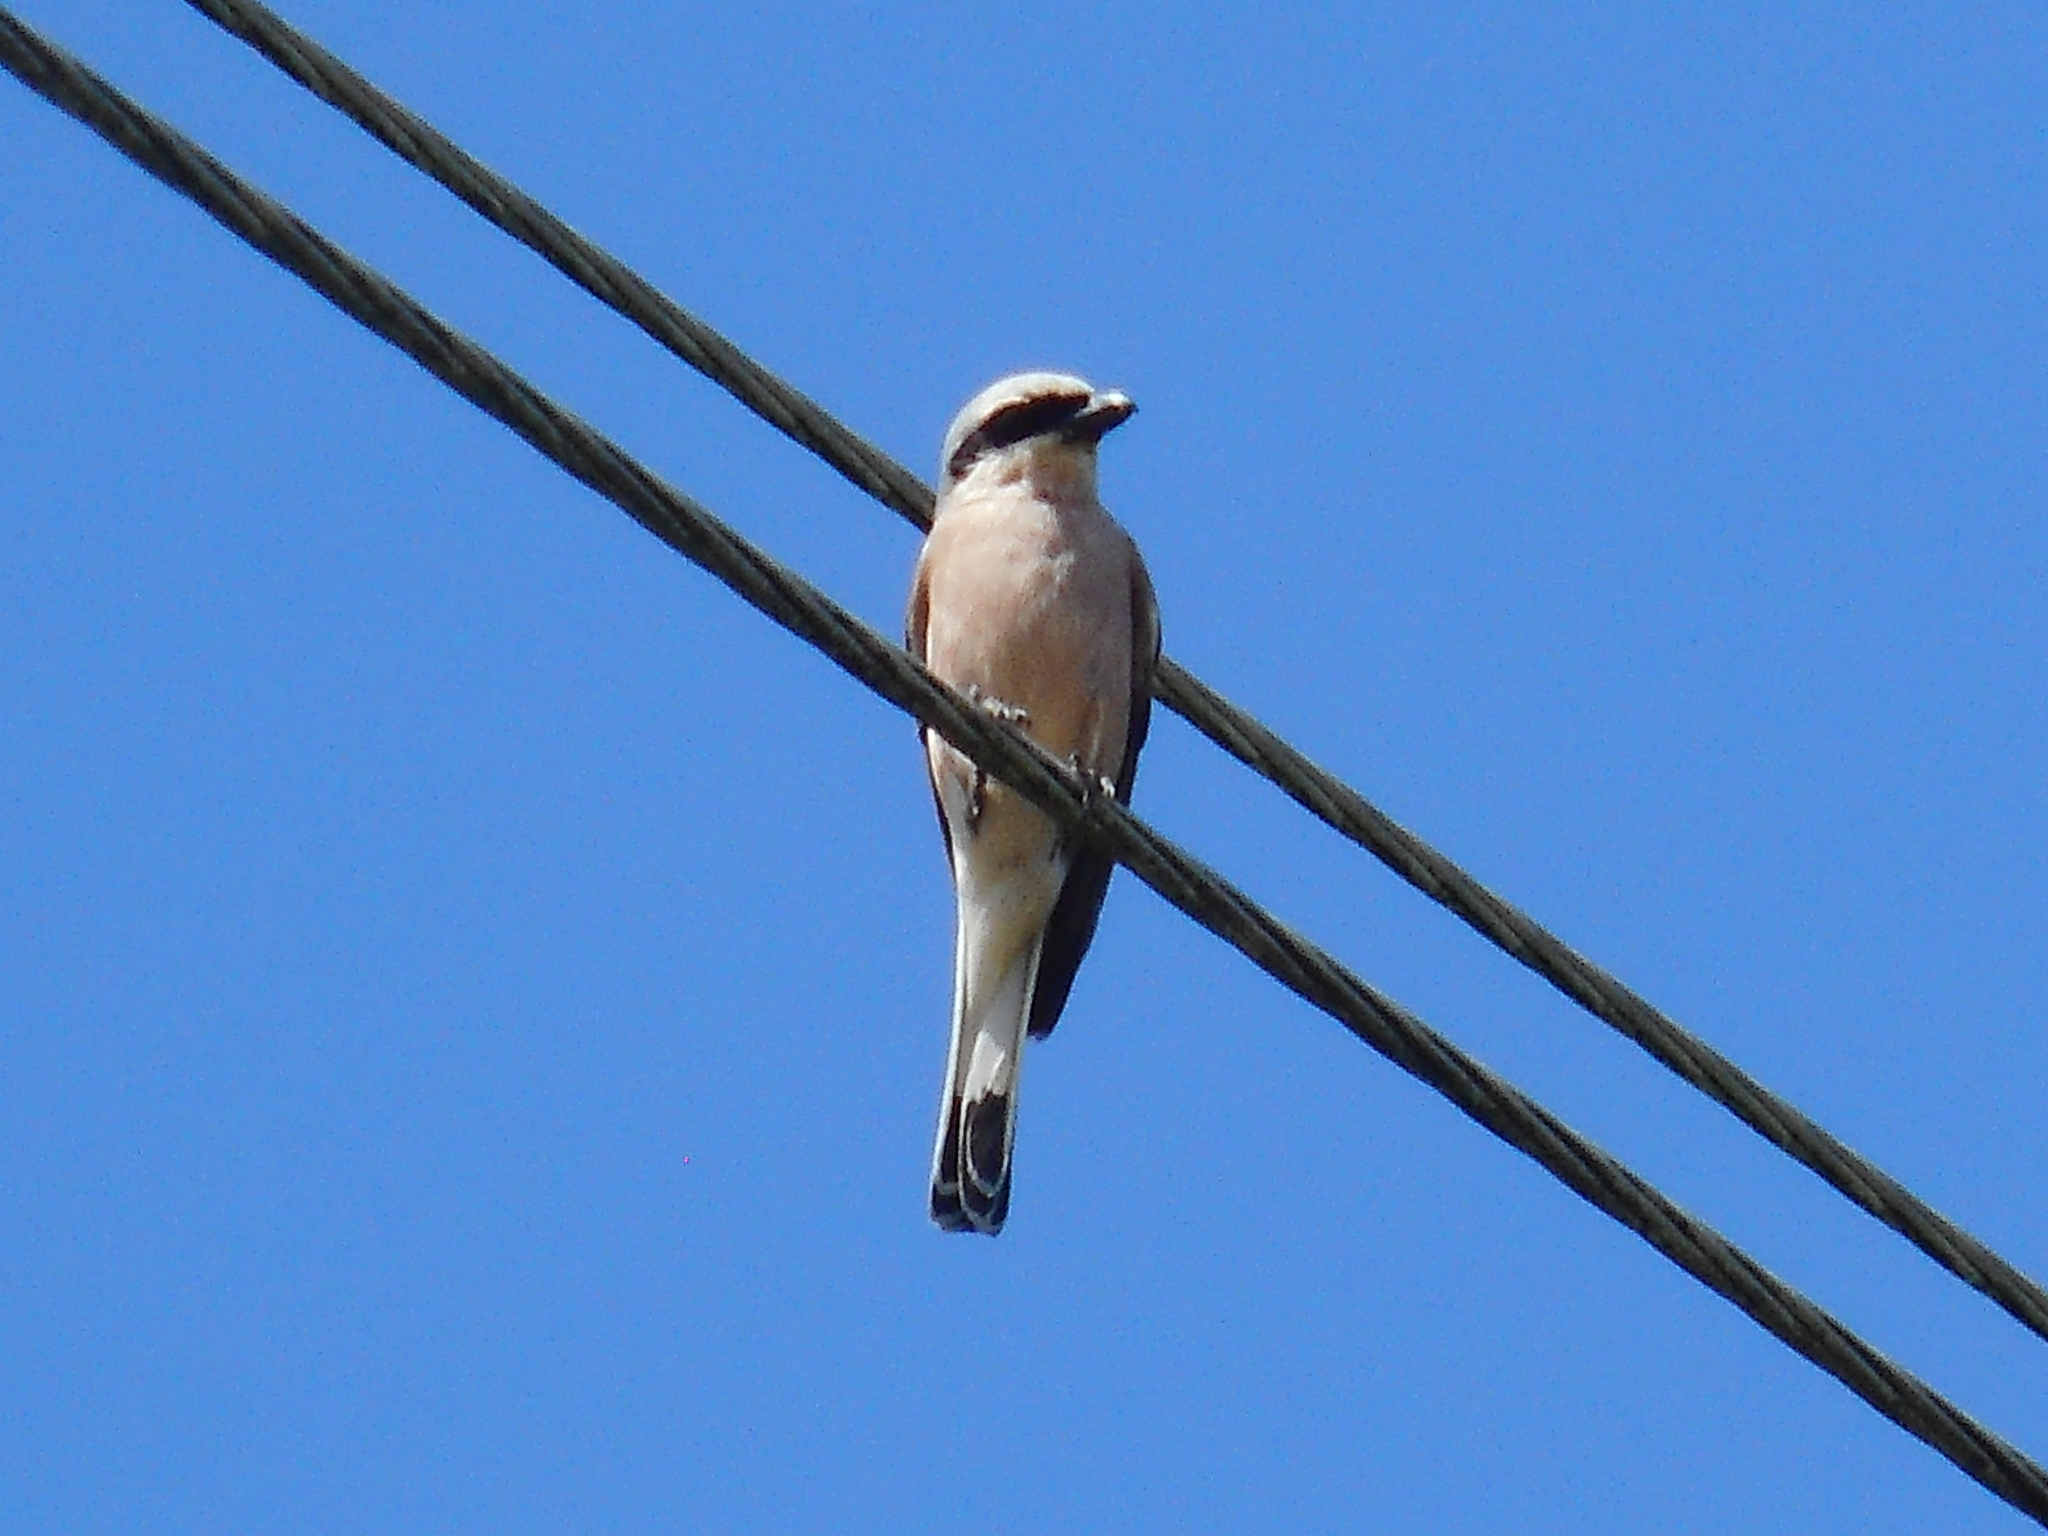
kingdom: Animalia
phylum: Chordata
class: Aves
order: Passeriformes
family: Laniidae
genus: Lanius
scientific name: Lanius collurio
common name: Red-backed shrike
